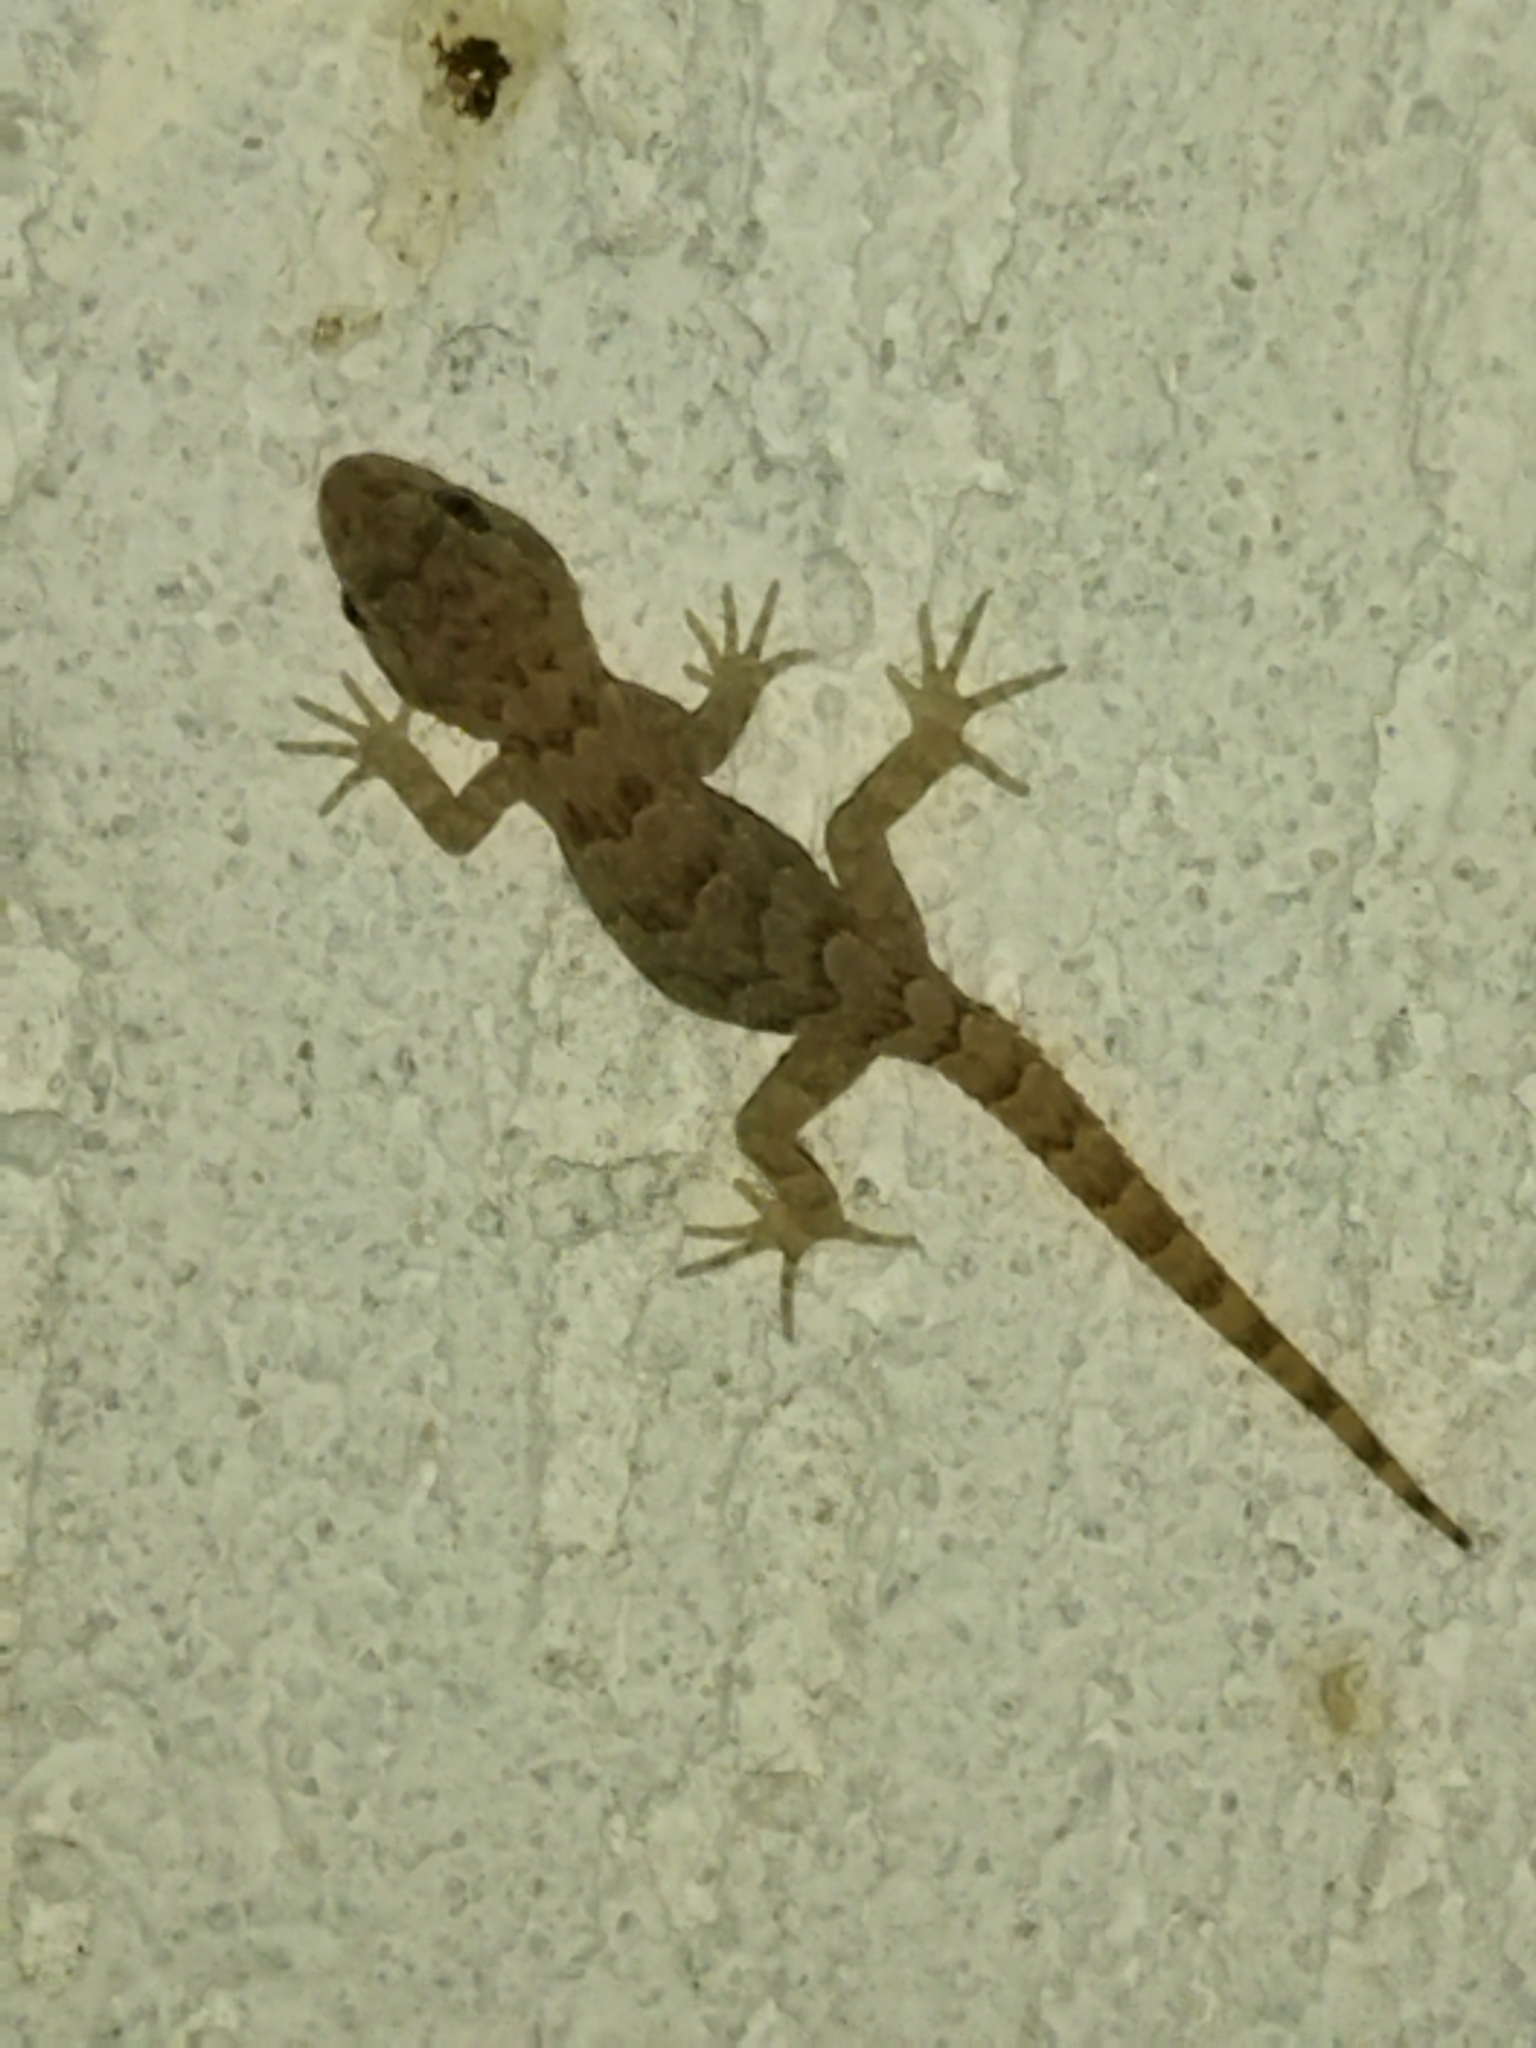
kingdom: Animalia
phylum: Chordata
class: Squamata
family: Gekkonidae
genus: Mediodactylus
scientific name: Mediodactylus kotschyi
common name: Kotschy's gecko
